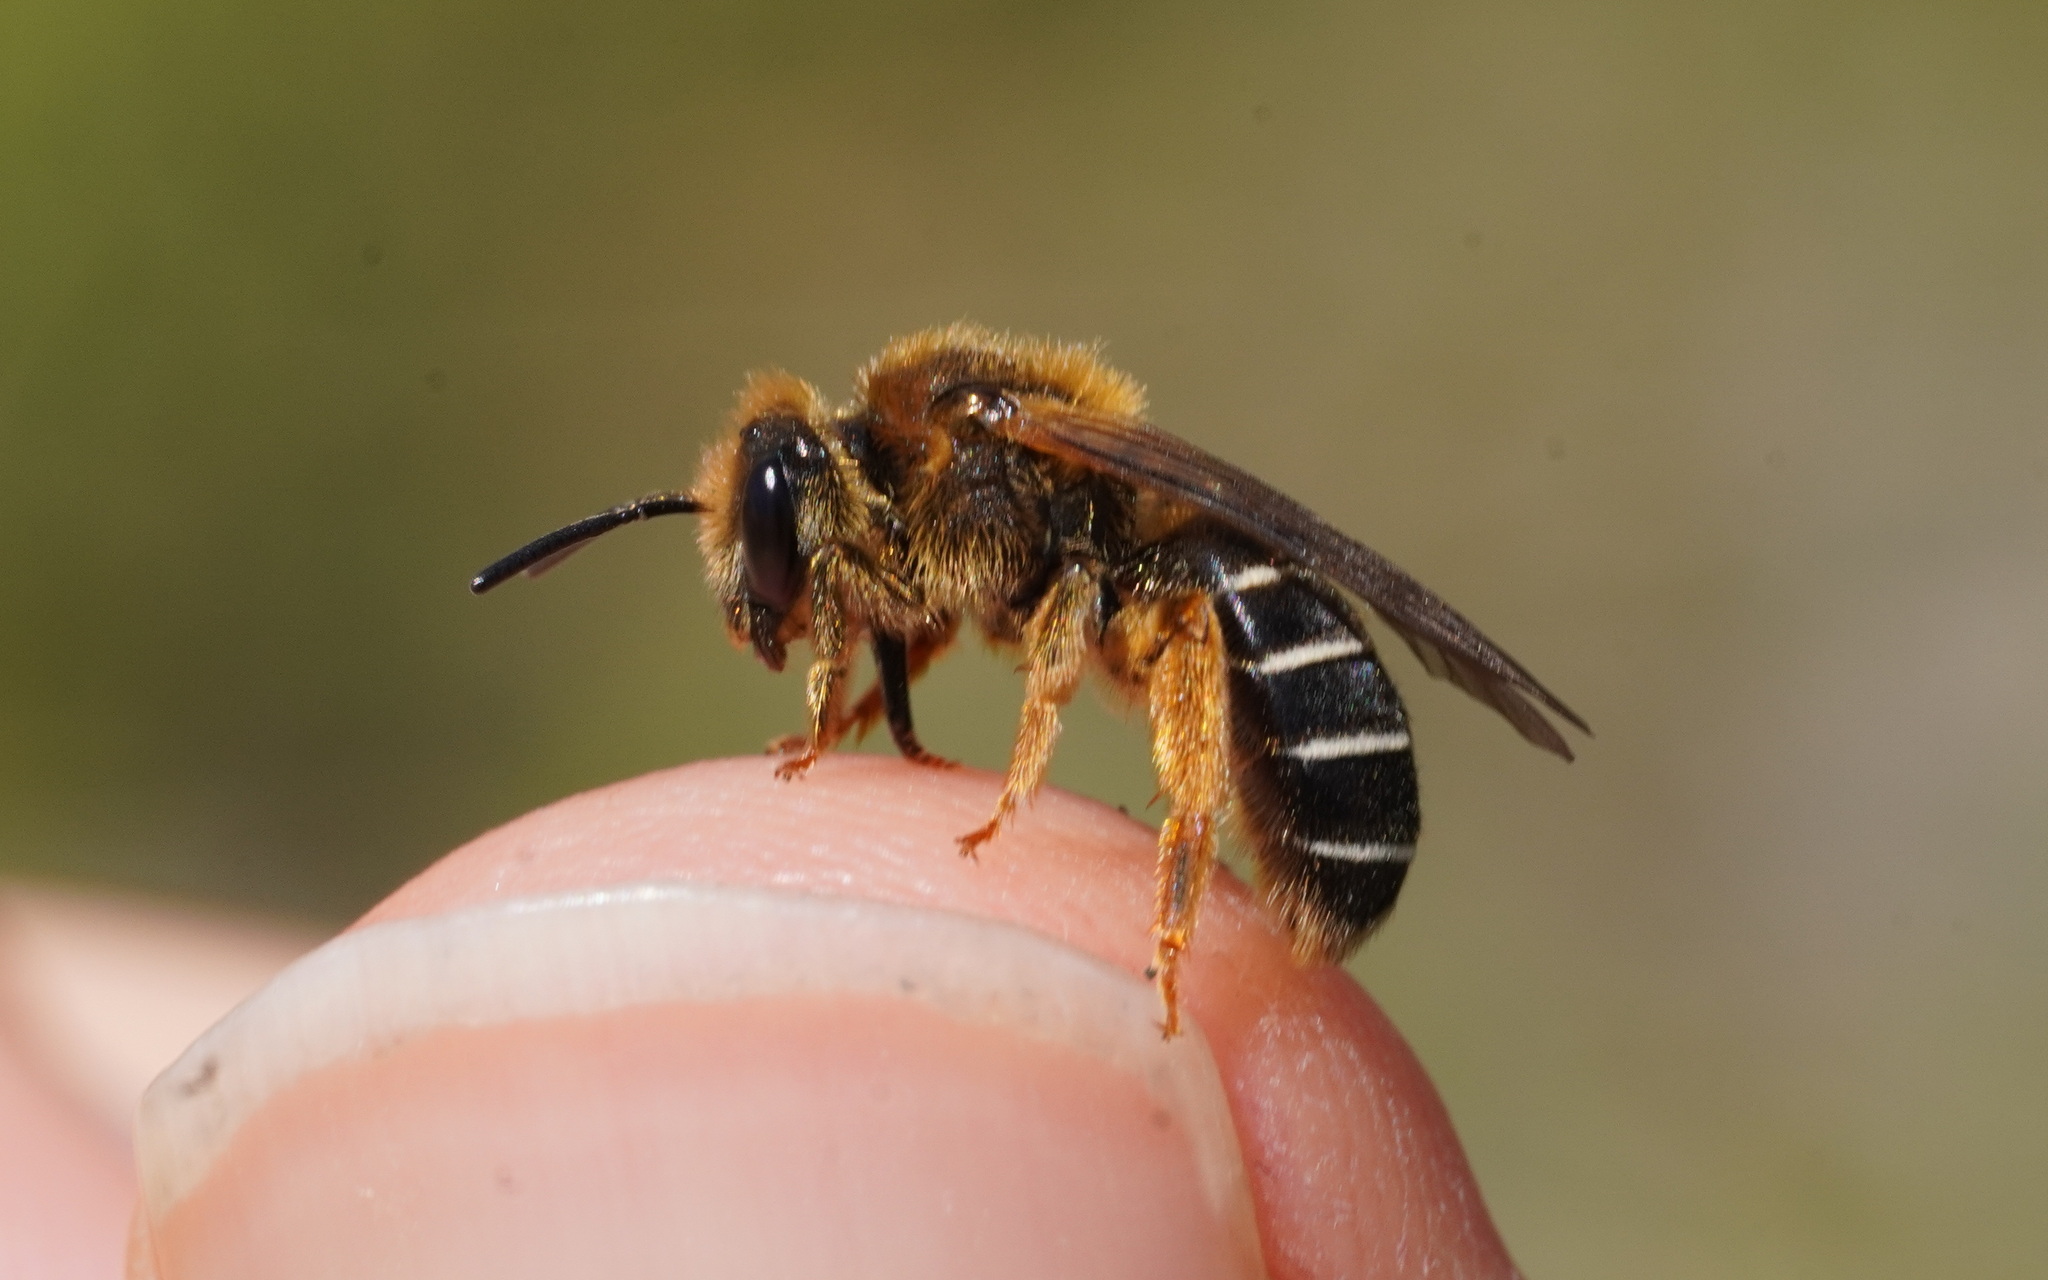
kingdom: Animalia
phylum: Arthropoda
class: Insecta
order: Hymenoptera
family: Halictidae
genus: Halictus
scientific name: Halictus rubicundus
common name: Orange-legged furrow bee
